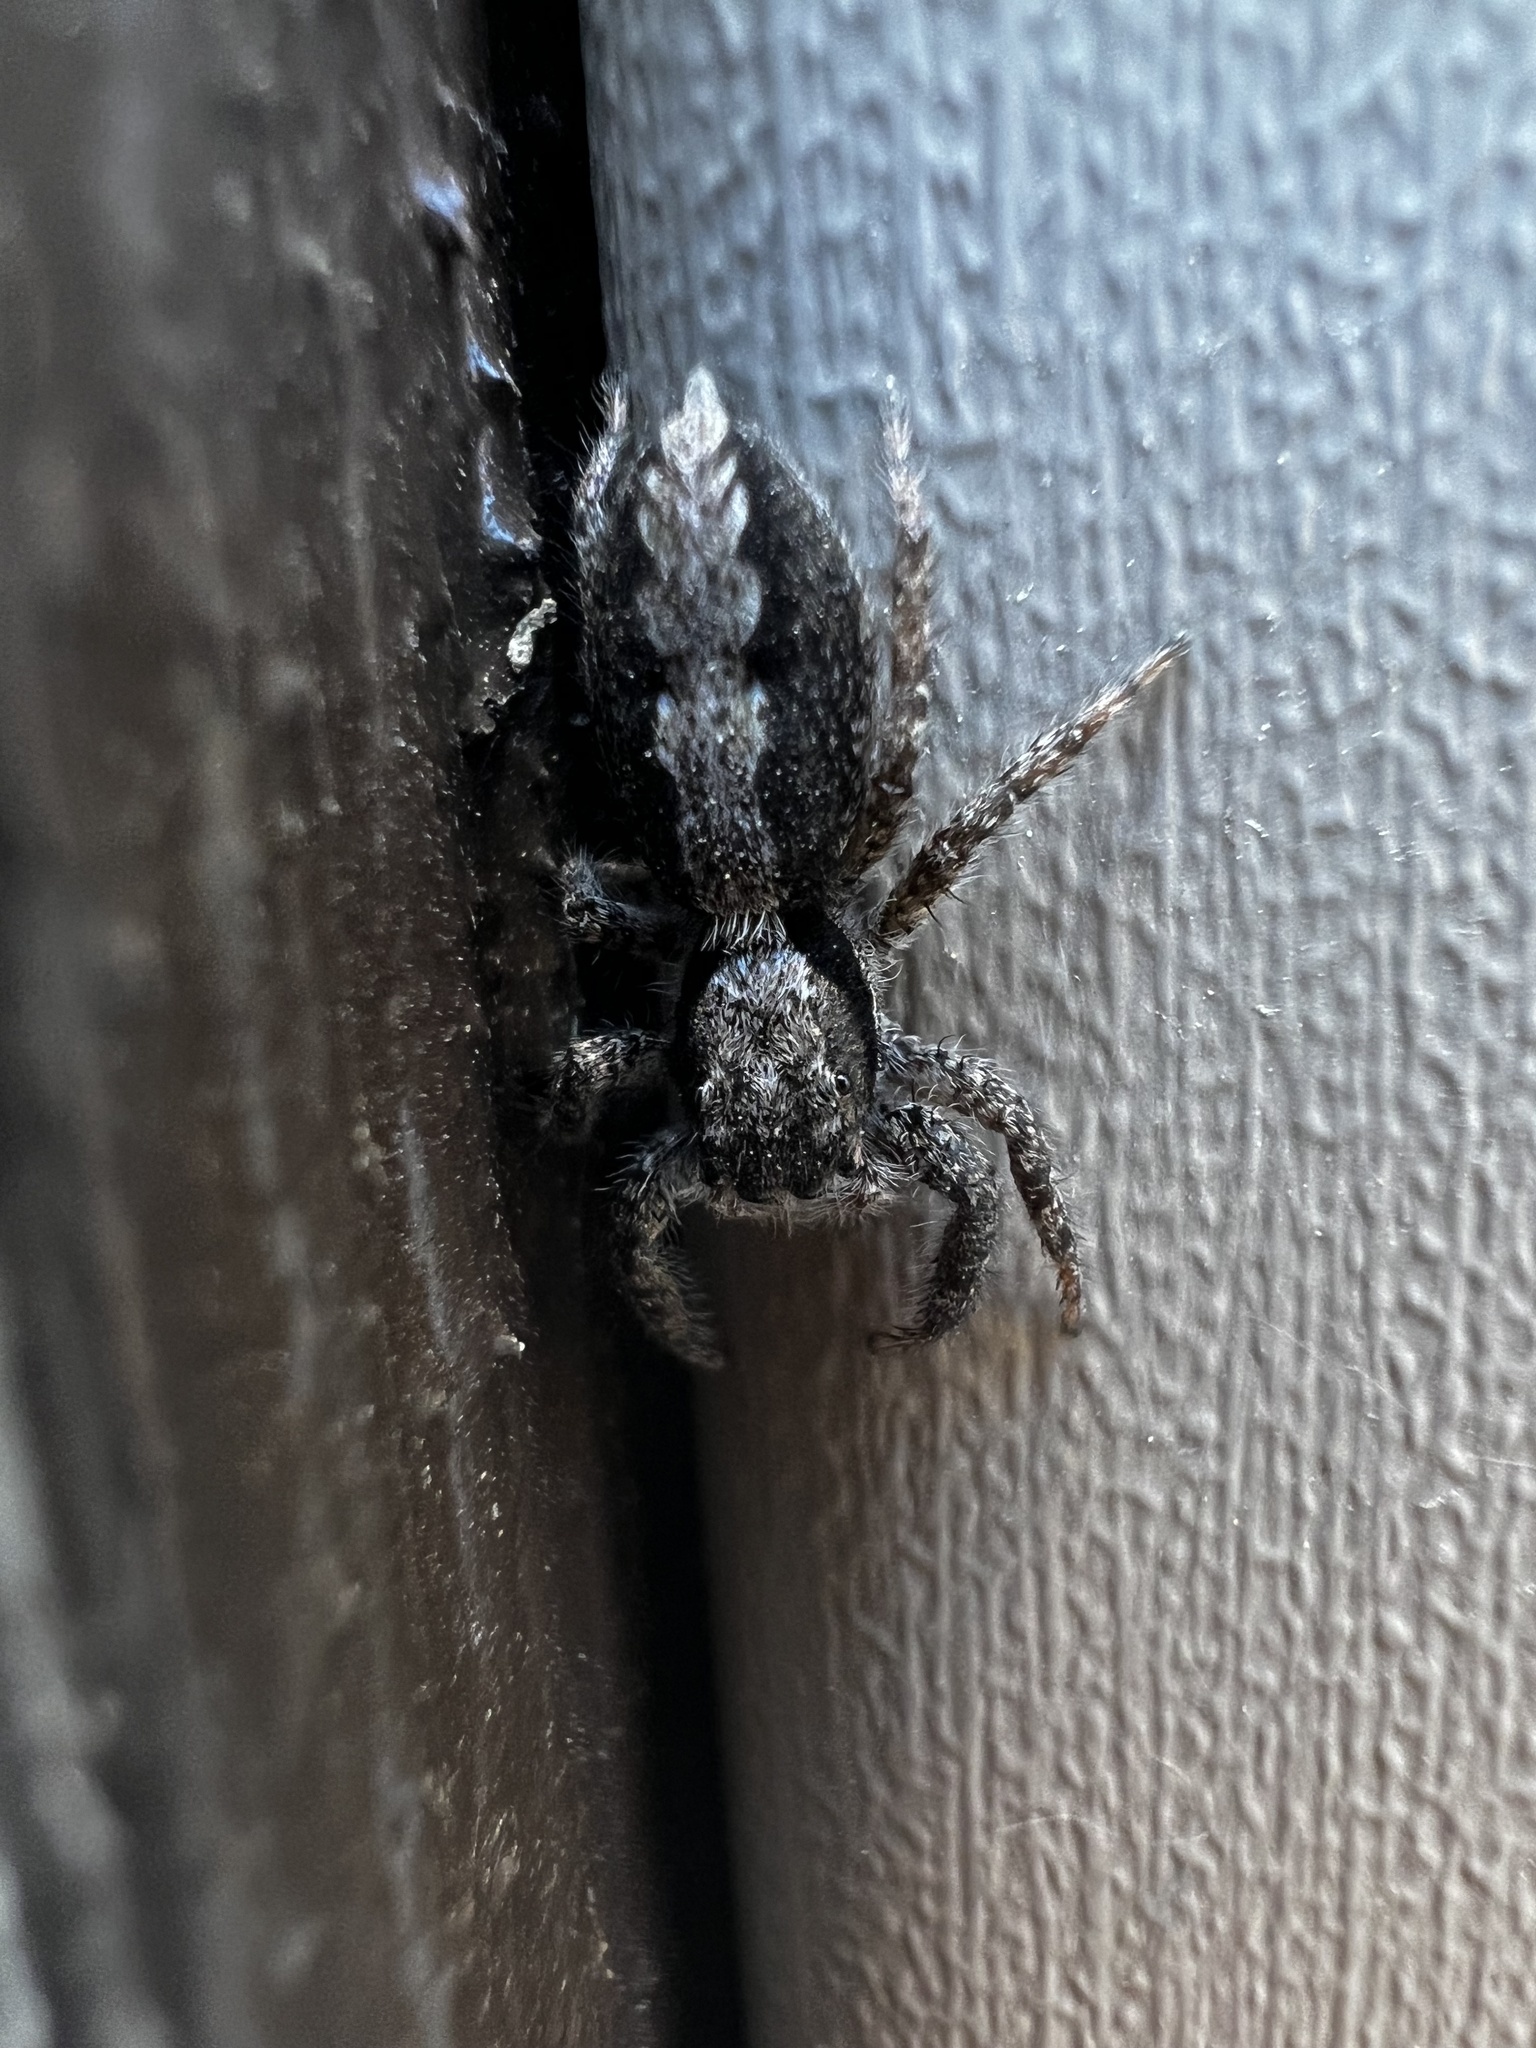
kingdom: Animalia
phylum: Arthropoda
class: Arachnida
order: Araneae
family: Salticidae
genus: Platycryptus
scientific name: Platycryptus californicus
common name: Jumping spiders
